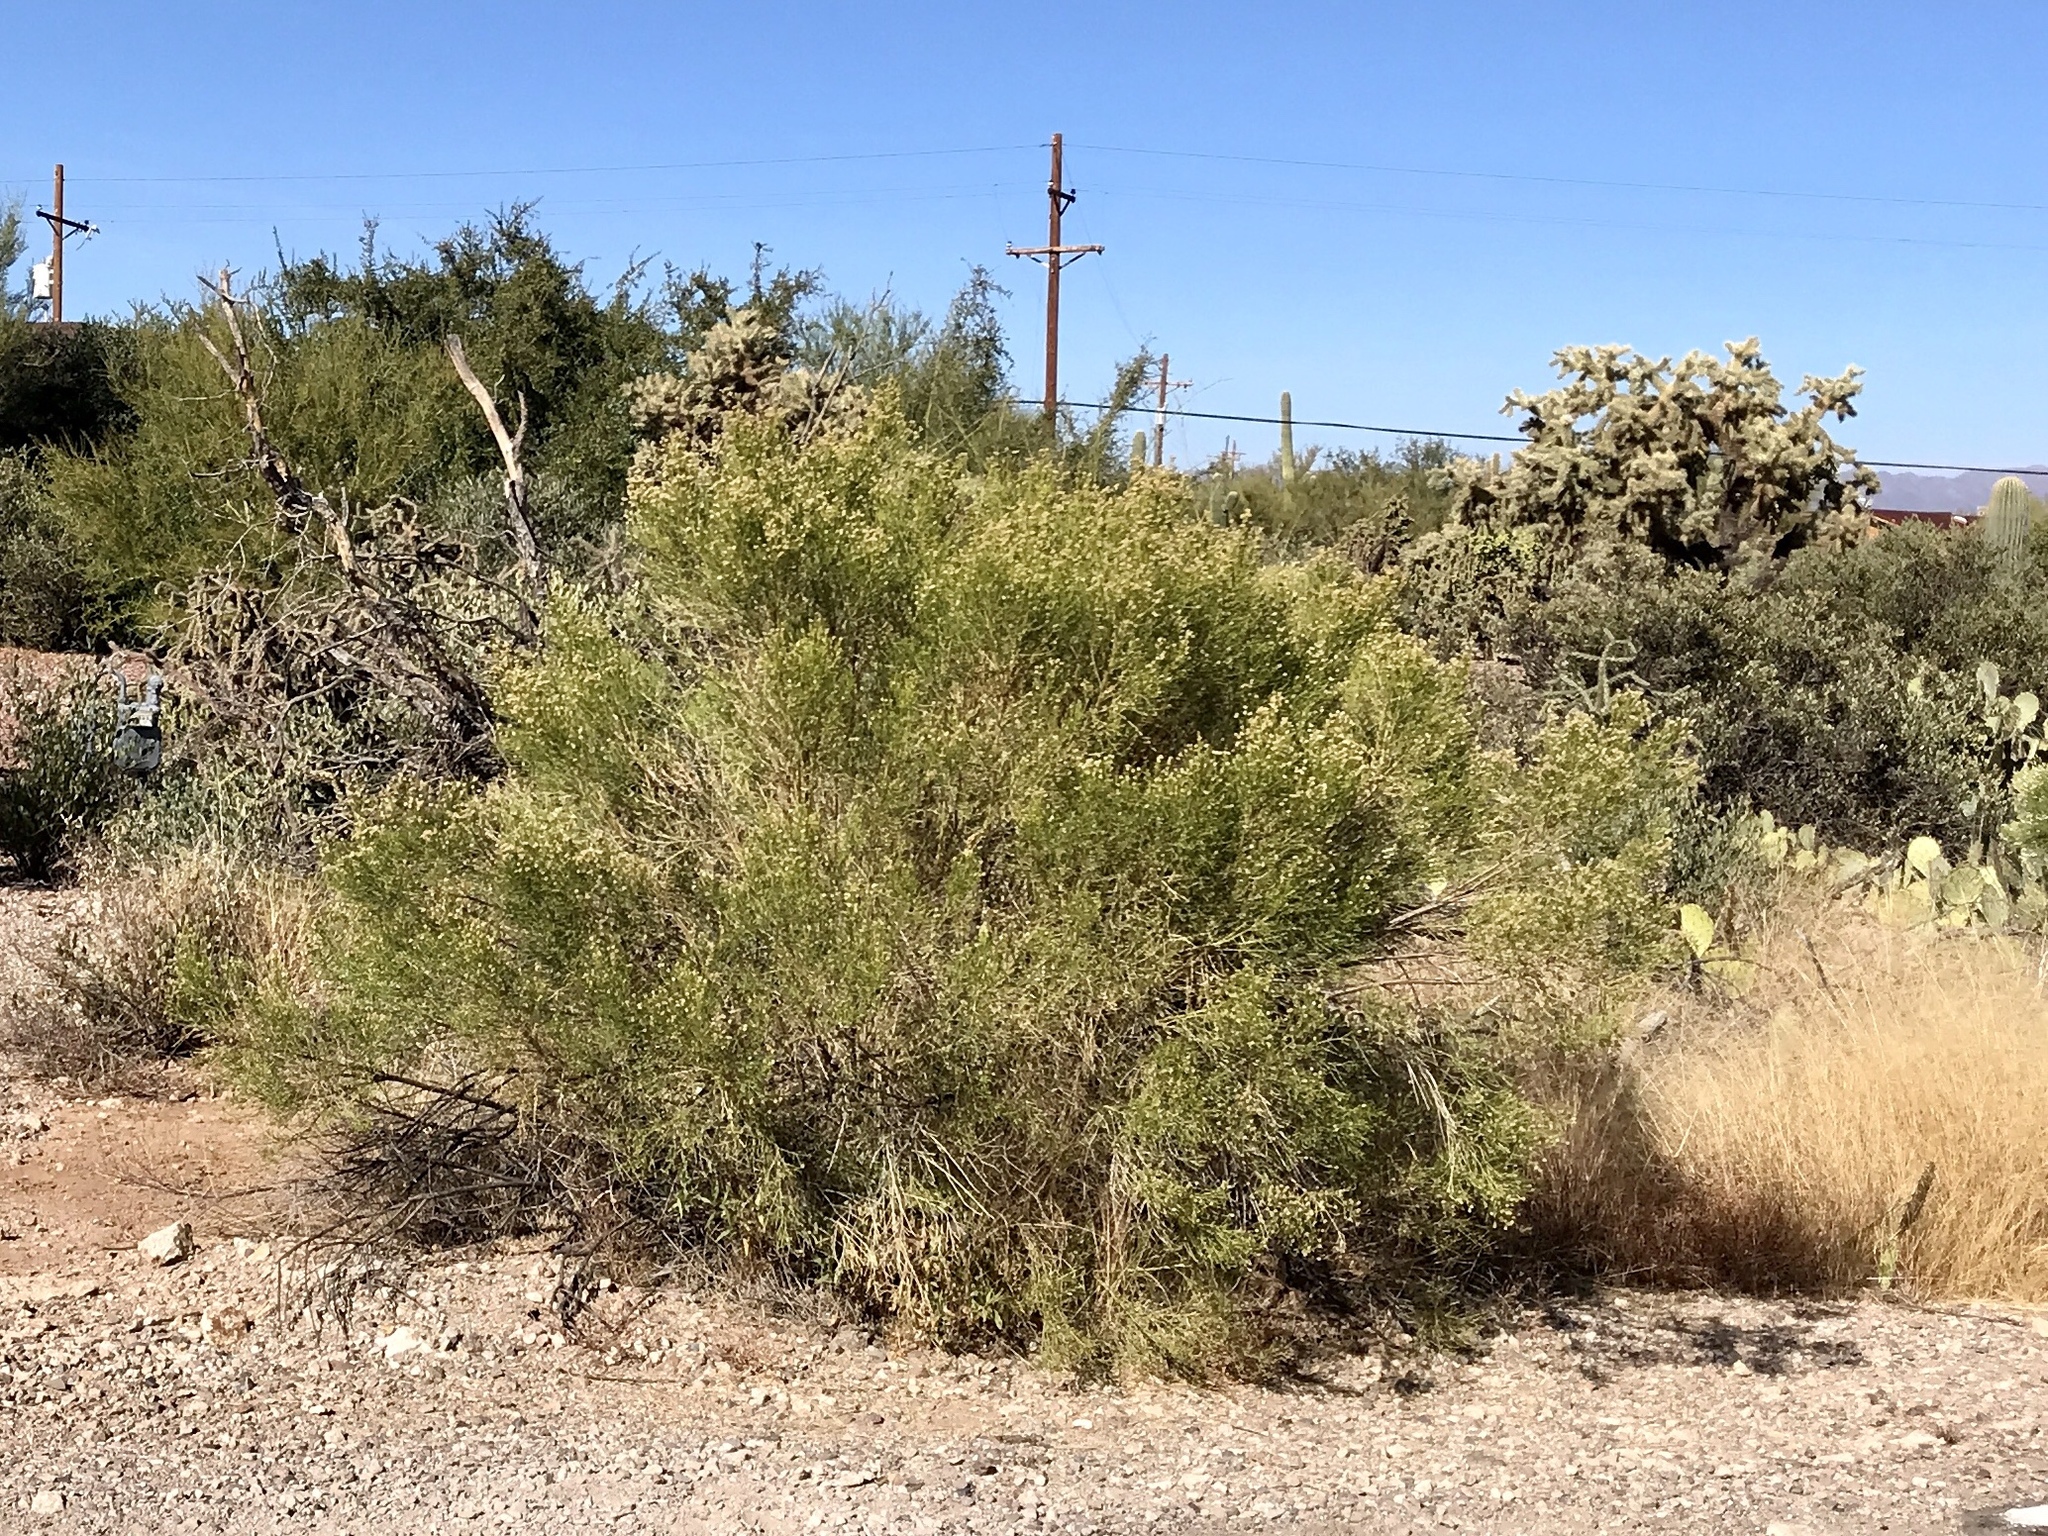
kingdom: Plantae
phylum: Tracheophyta
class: Magnoliopsida
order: Asterales
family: Asteraceae
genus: Baccharis
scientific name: Baccharis sarothroides
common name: Desert-broom
